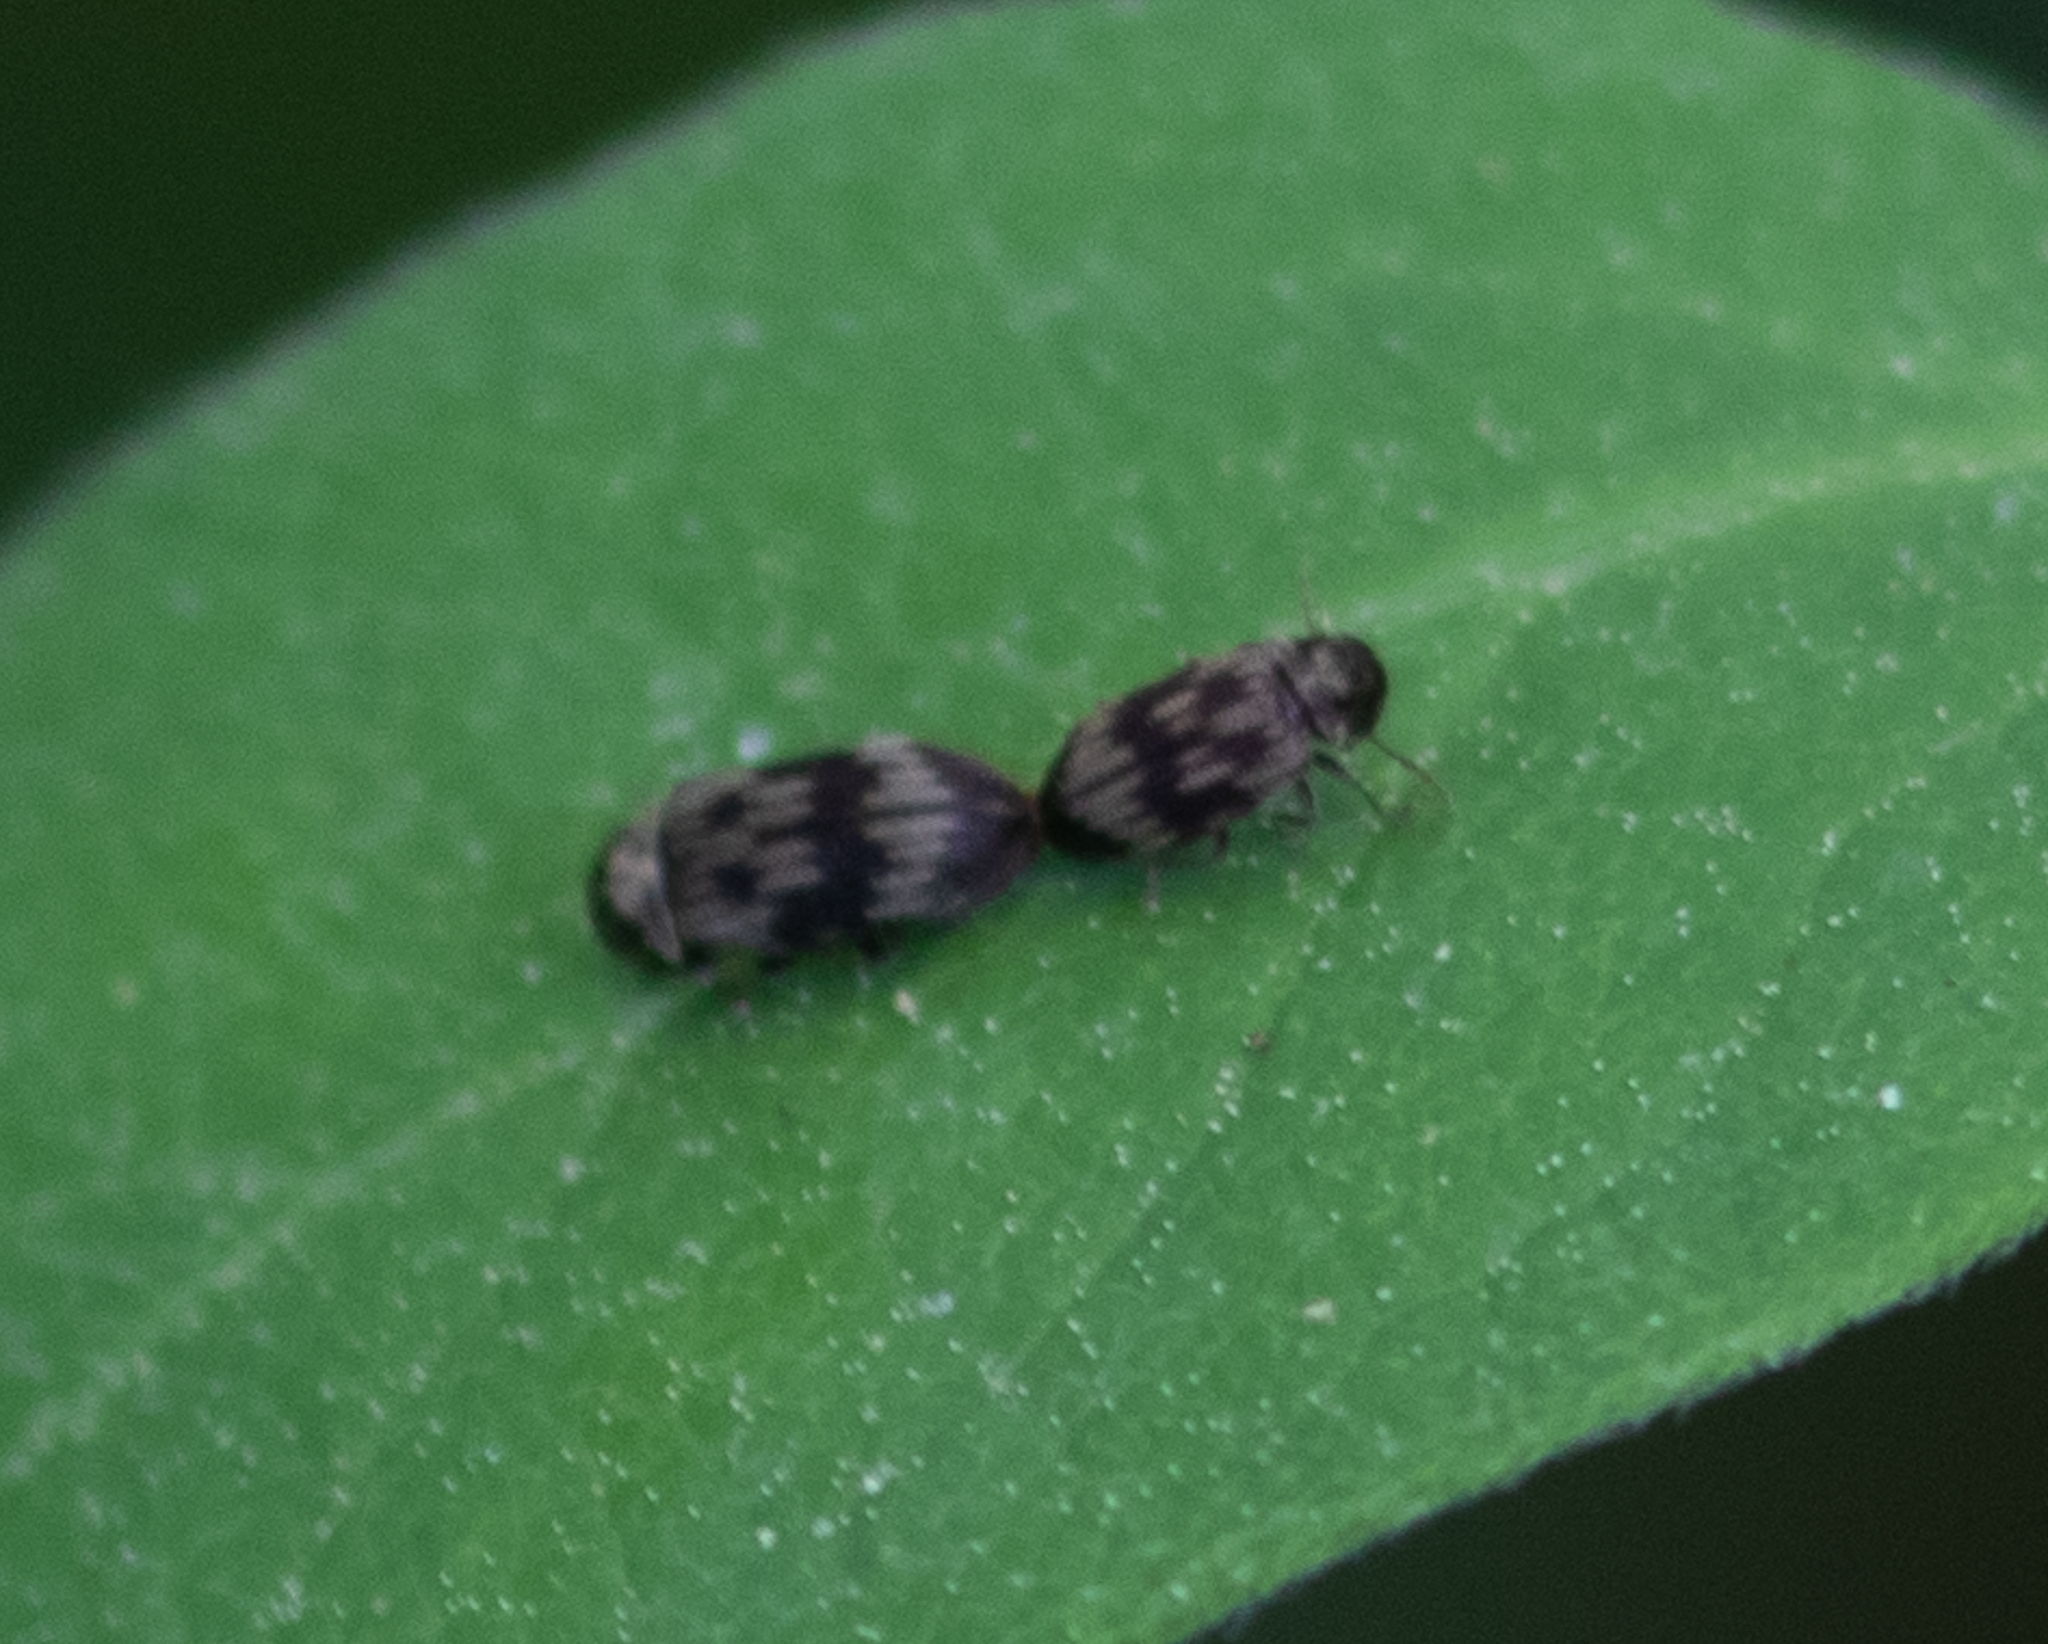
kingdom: Animalia
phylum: Arthropoda
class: Insecta
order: Coleoptera
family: Anobiidae
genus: Hadrobregmus
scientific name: Hadrobregmus notatus
